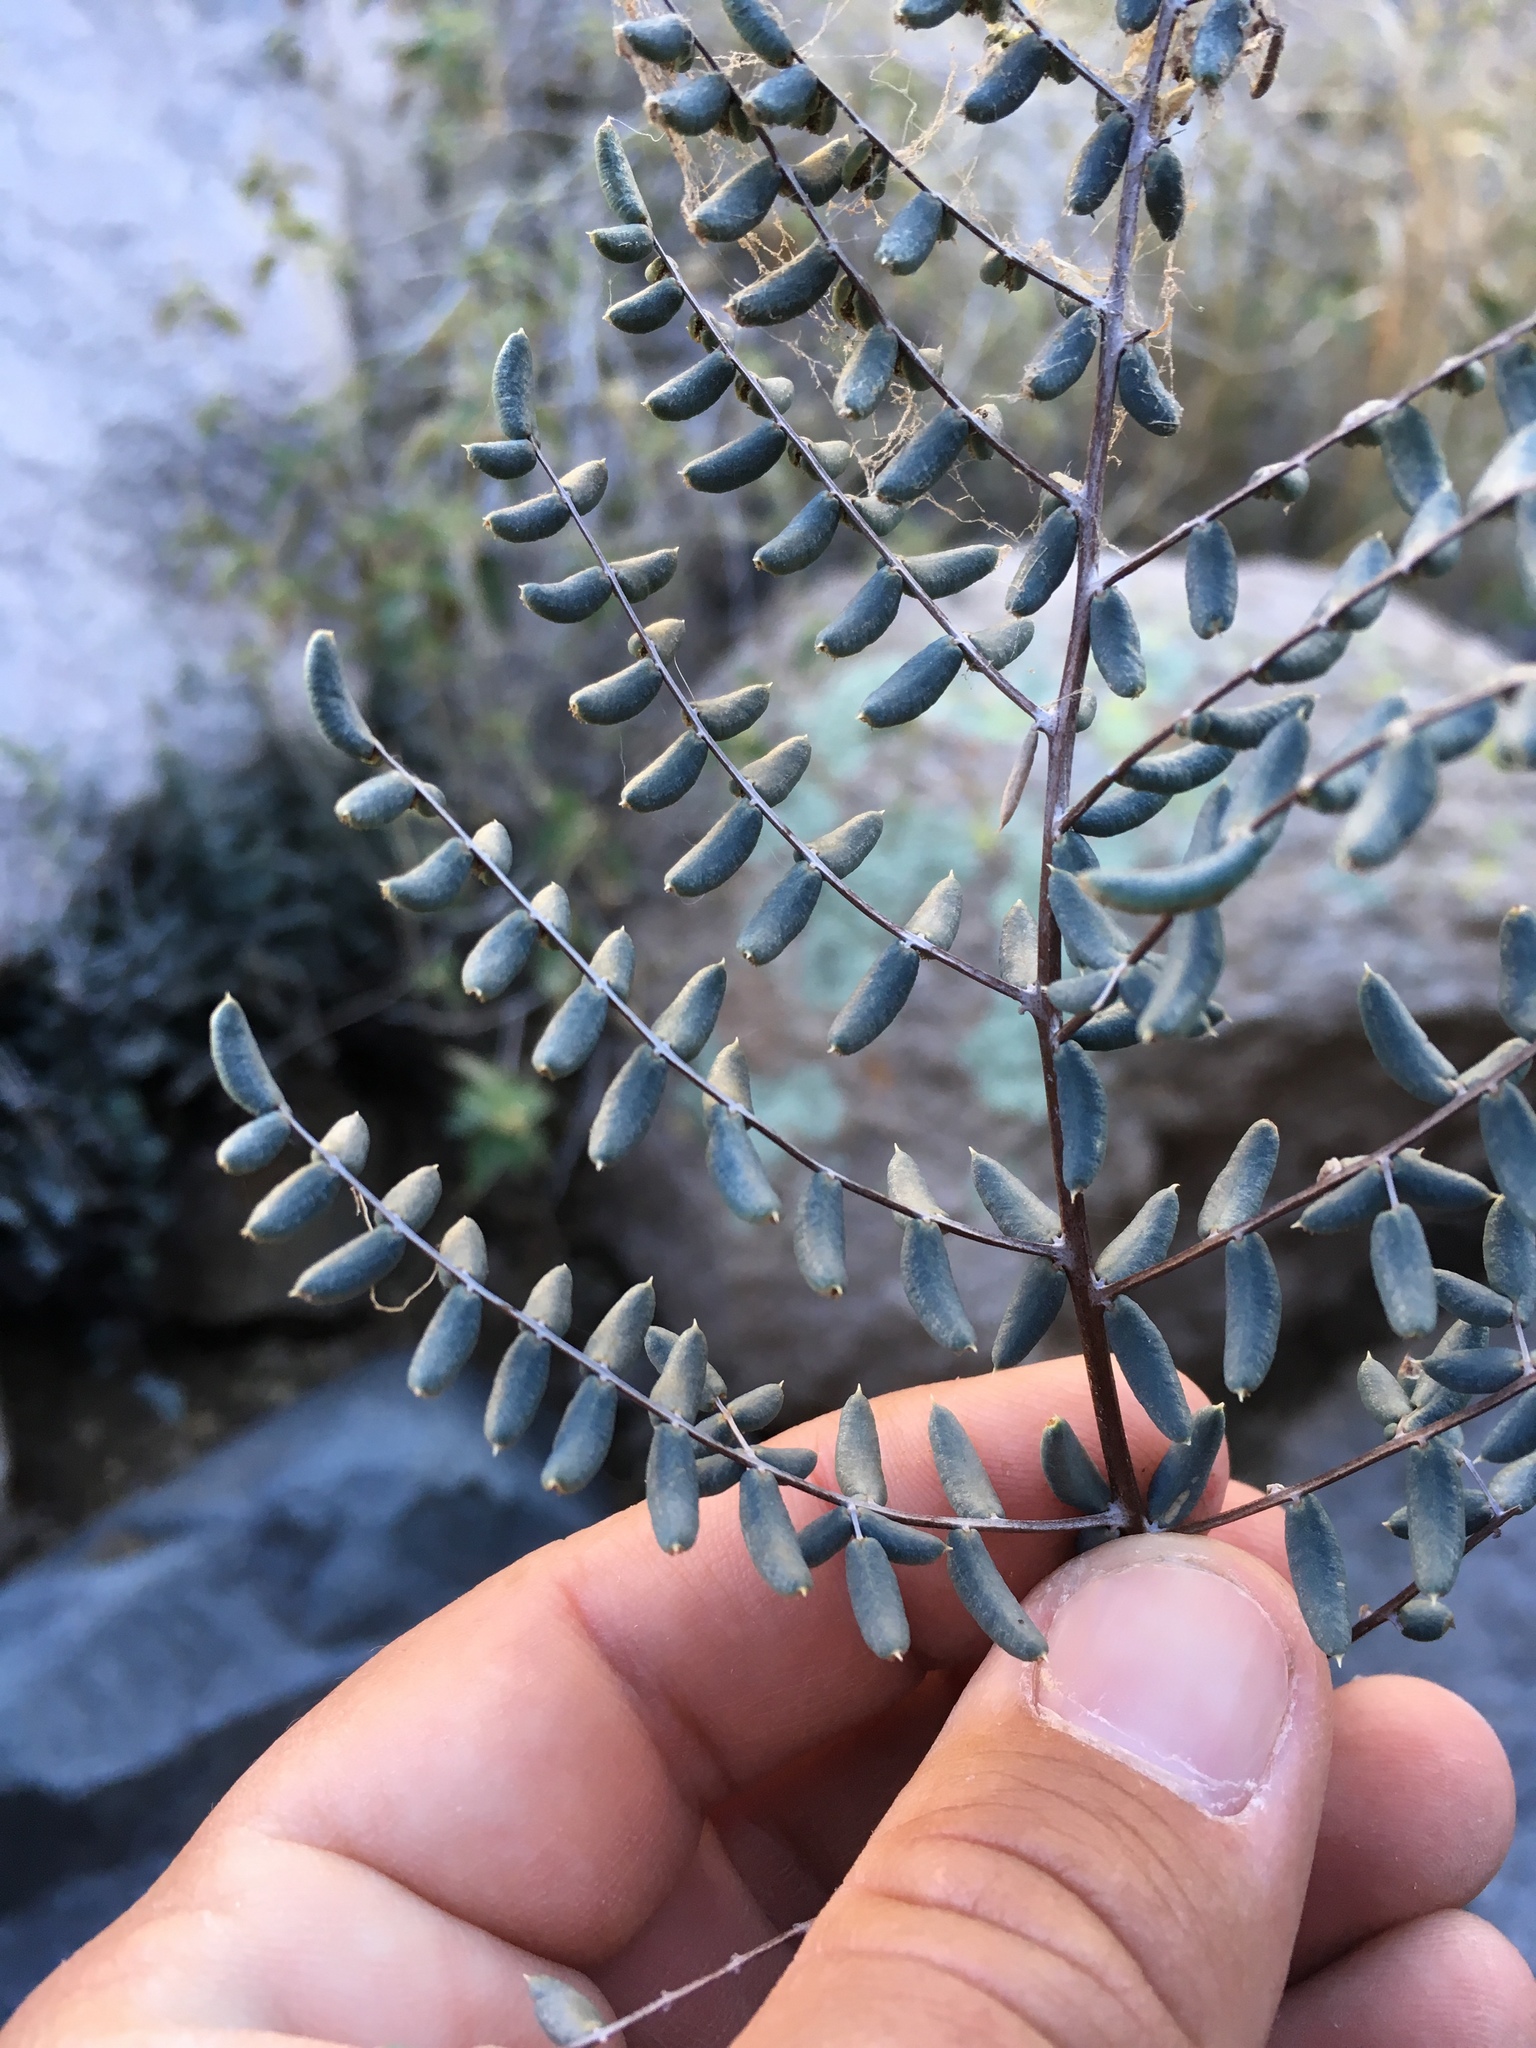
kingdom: Plantae
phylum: Tracheophyta
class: Polypodiopsida
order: Polypodiales
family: Pteridaceae
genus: Pellaea
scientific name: Pellaea truncata
